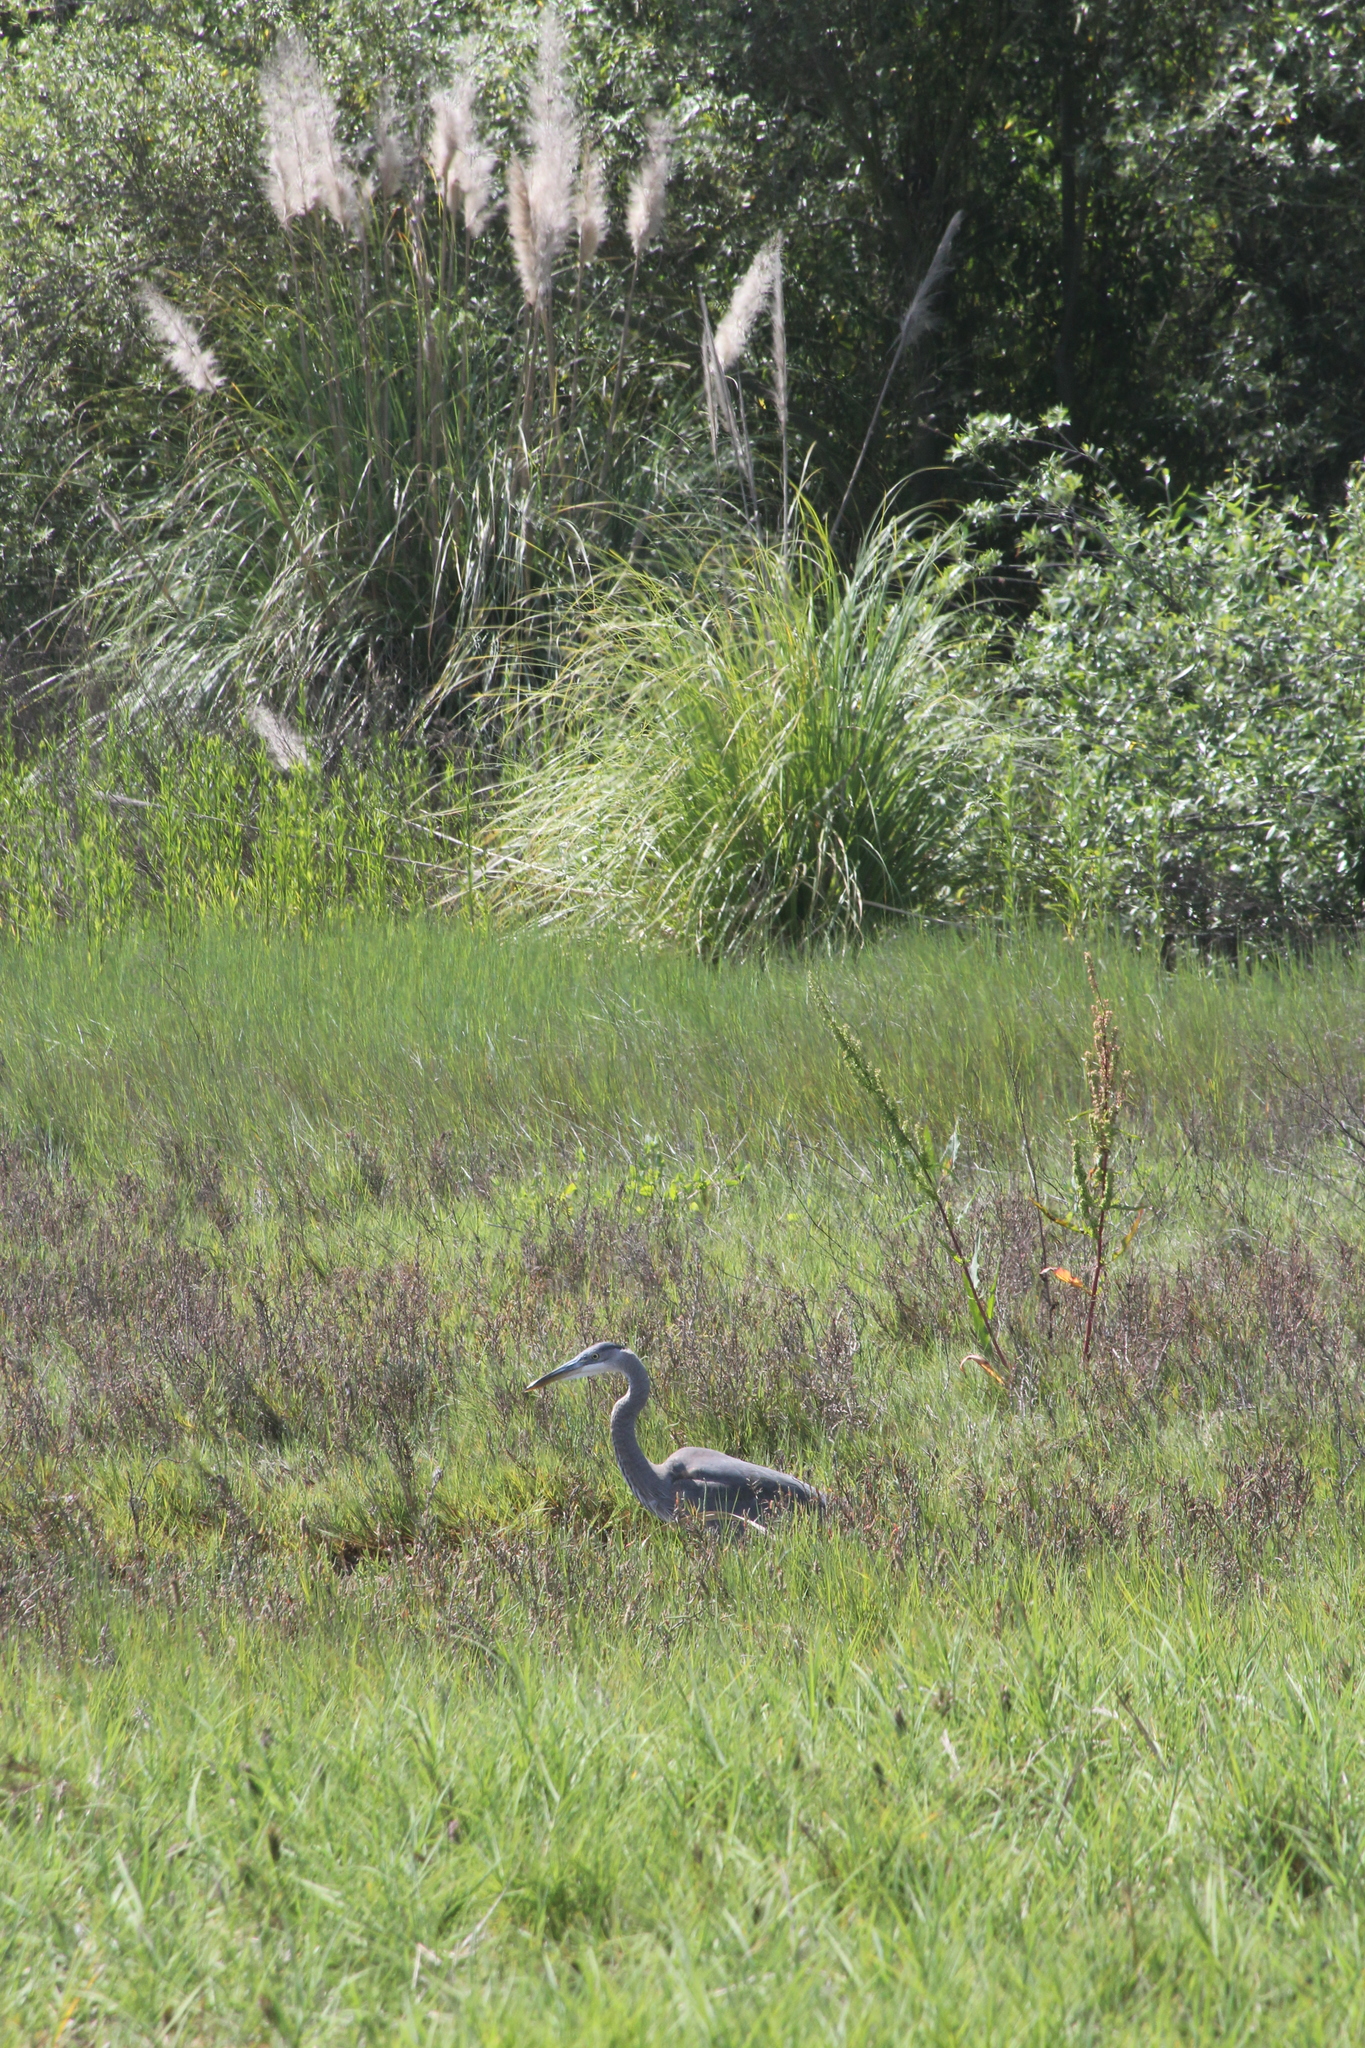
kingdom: Animalia
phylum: Chordata
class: Aves
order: Pelecaniformes
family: Ardeidae
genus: Ardea
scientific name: Ardea herodias
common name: Great blue heron
